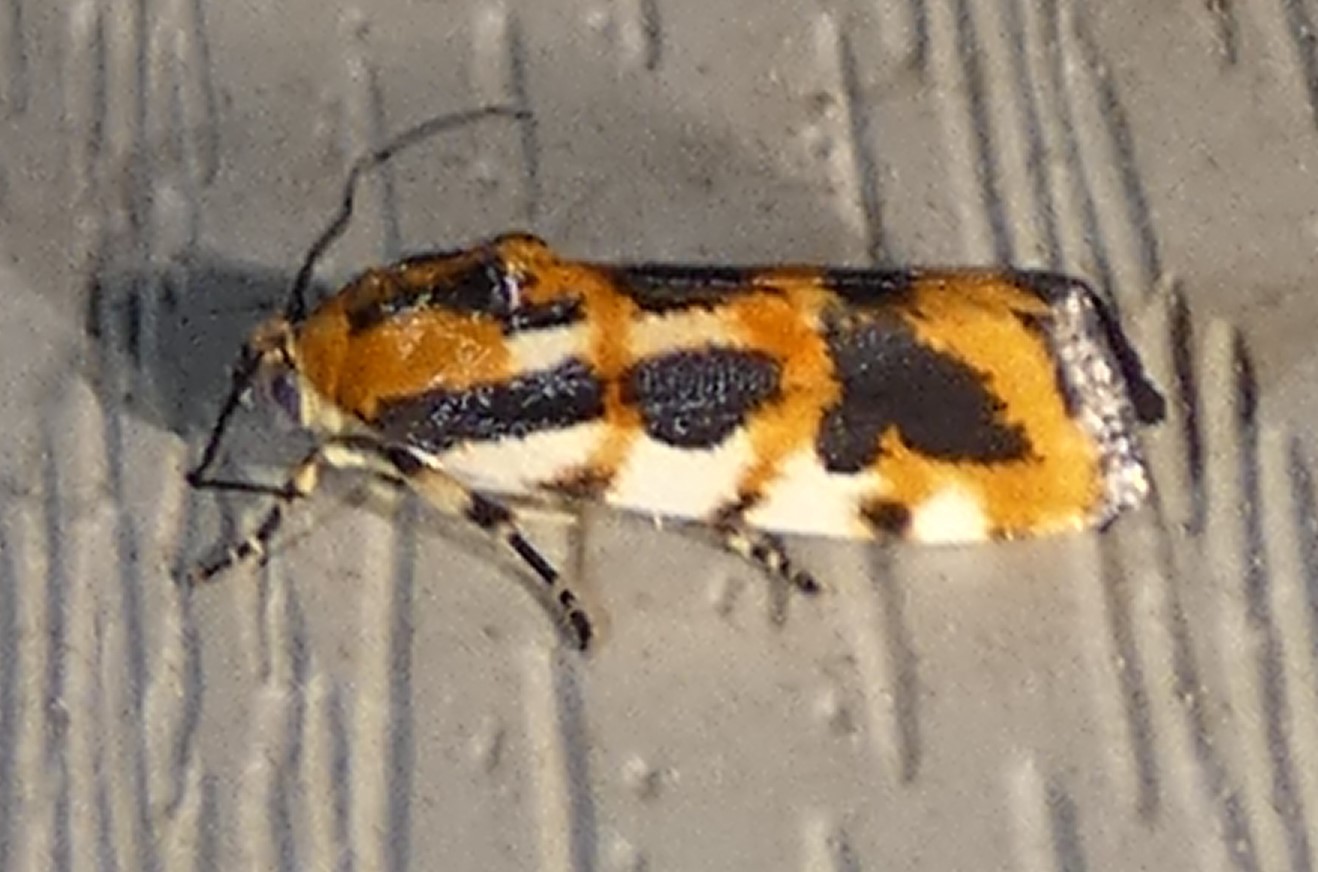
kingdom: Animalia
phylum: Arthropoda
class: Insecta
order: Lepidoptera
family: Noctuidae
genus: Acontia
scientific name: Acontia leo
